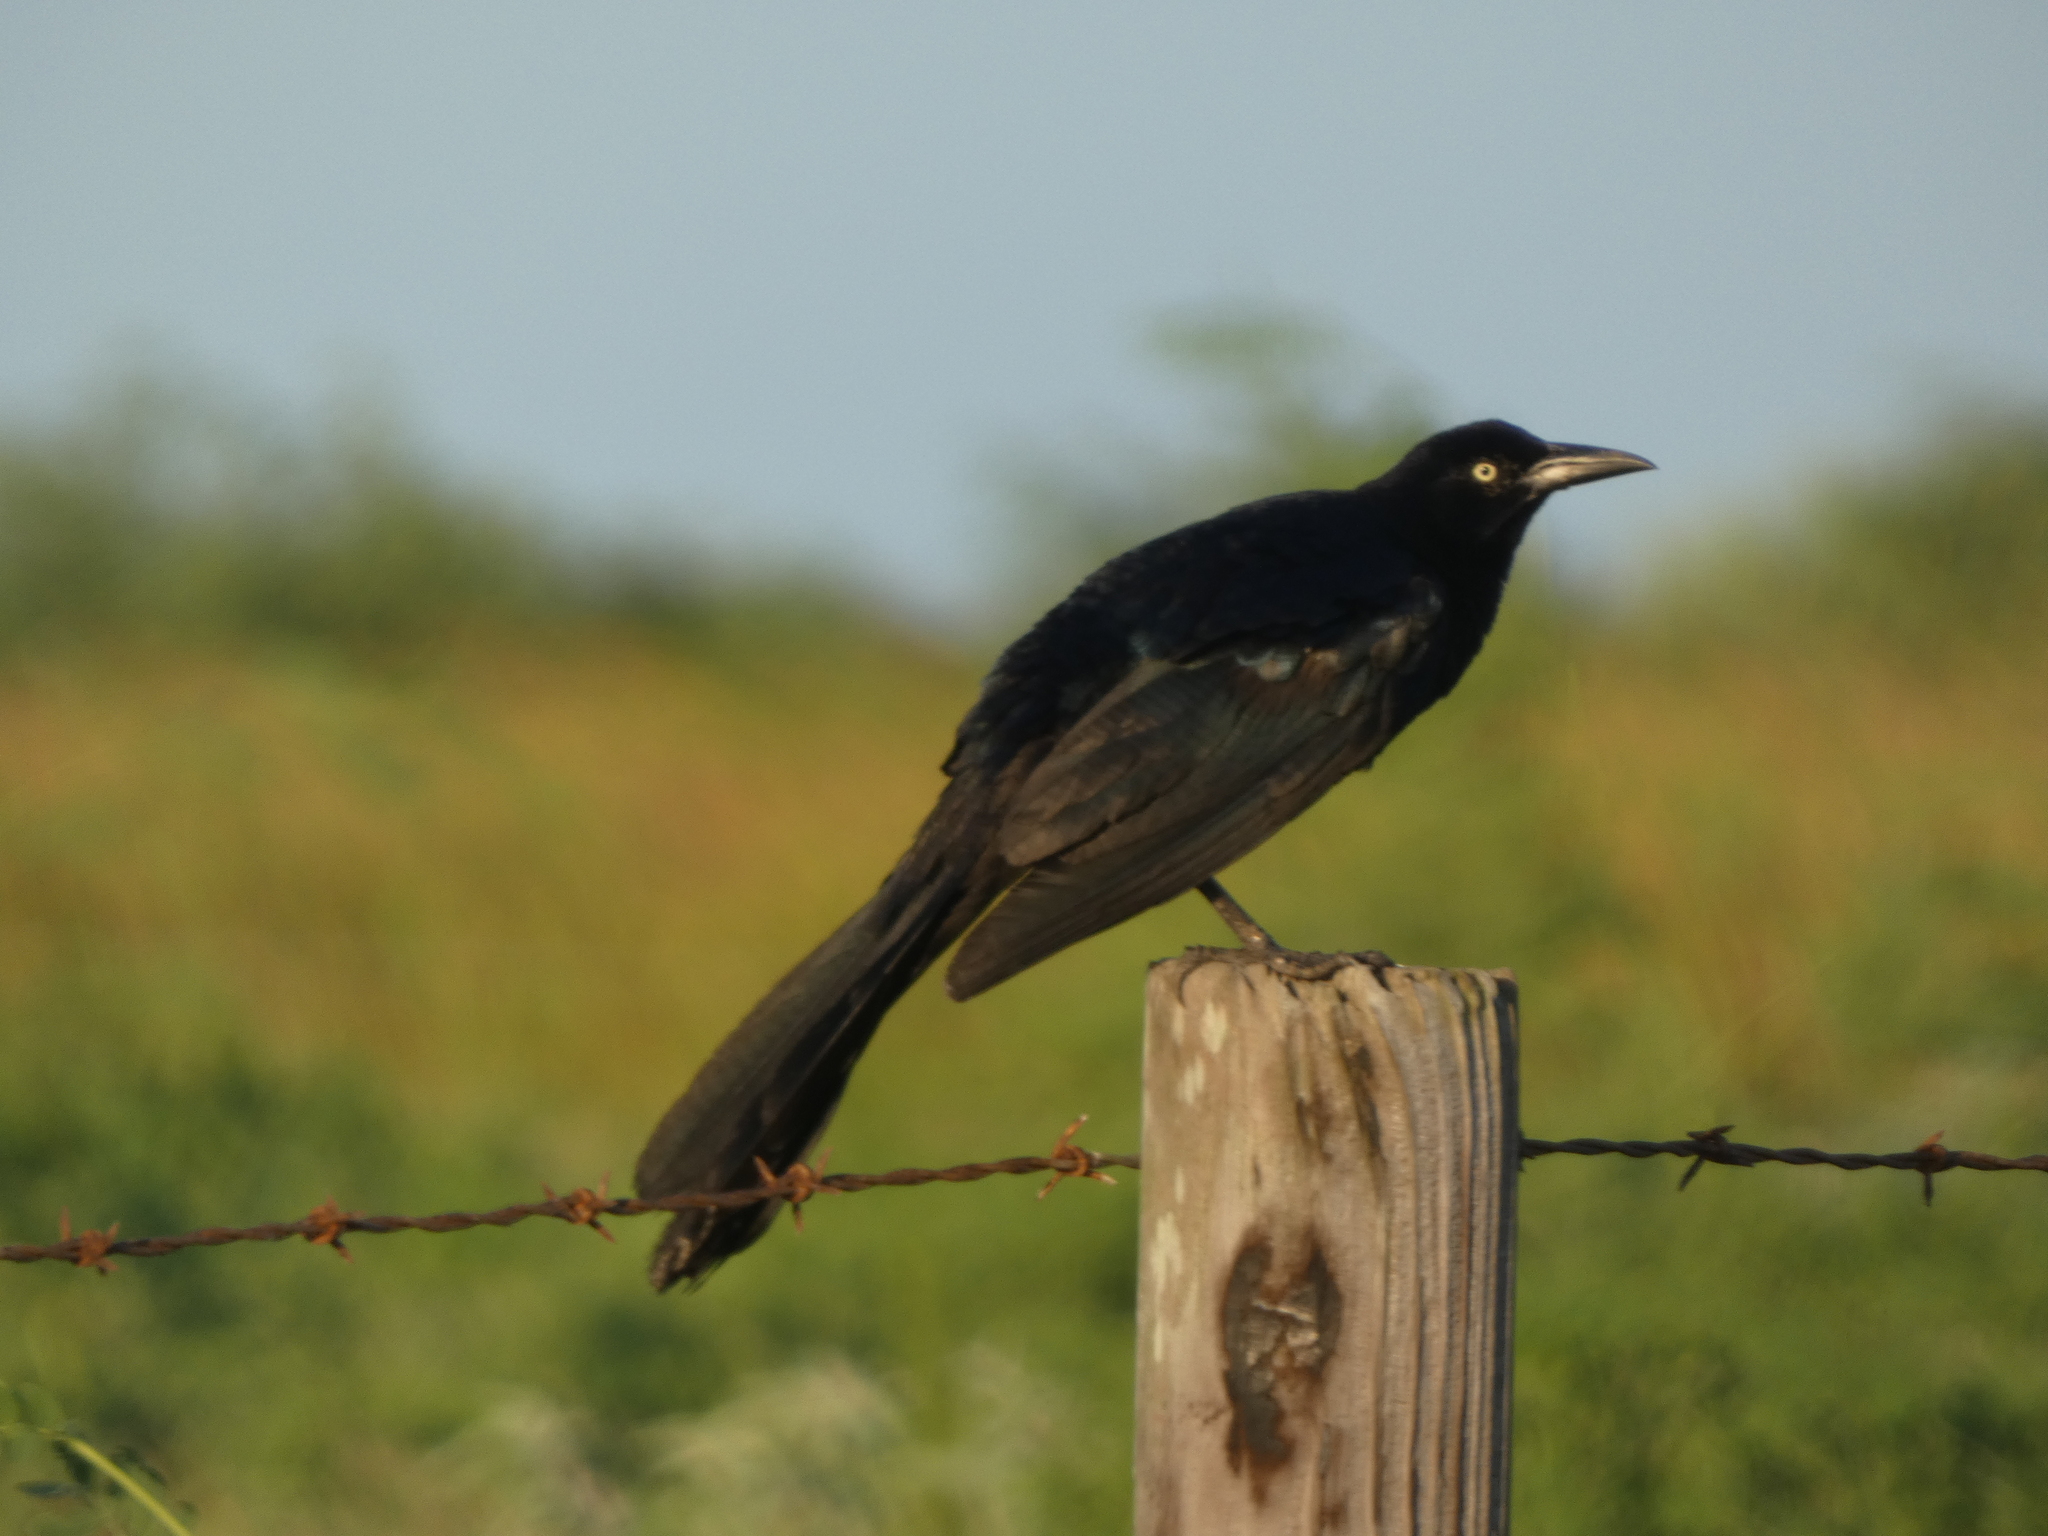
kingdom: Animalia
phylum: Chordata
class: Aves
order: Passeriformes
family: Icteridae
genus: Quiscalus
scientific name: Quiscalus mexicanus
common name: Great-tailed grackle
